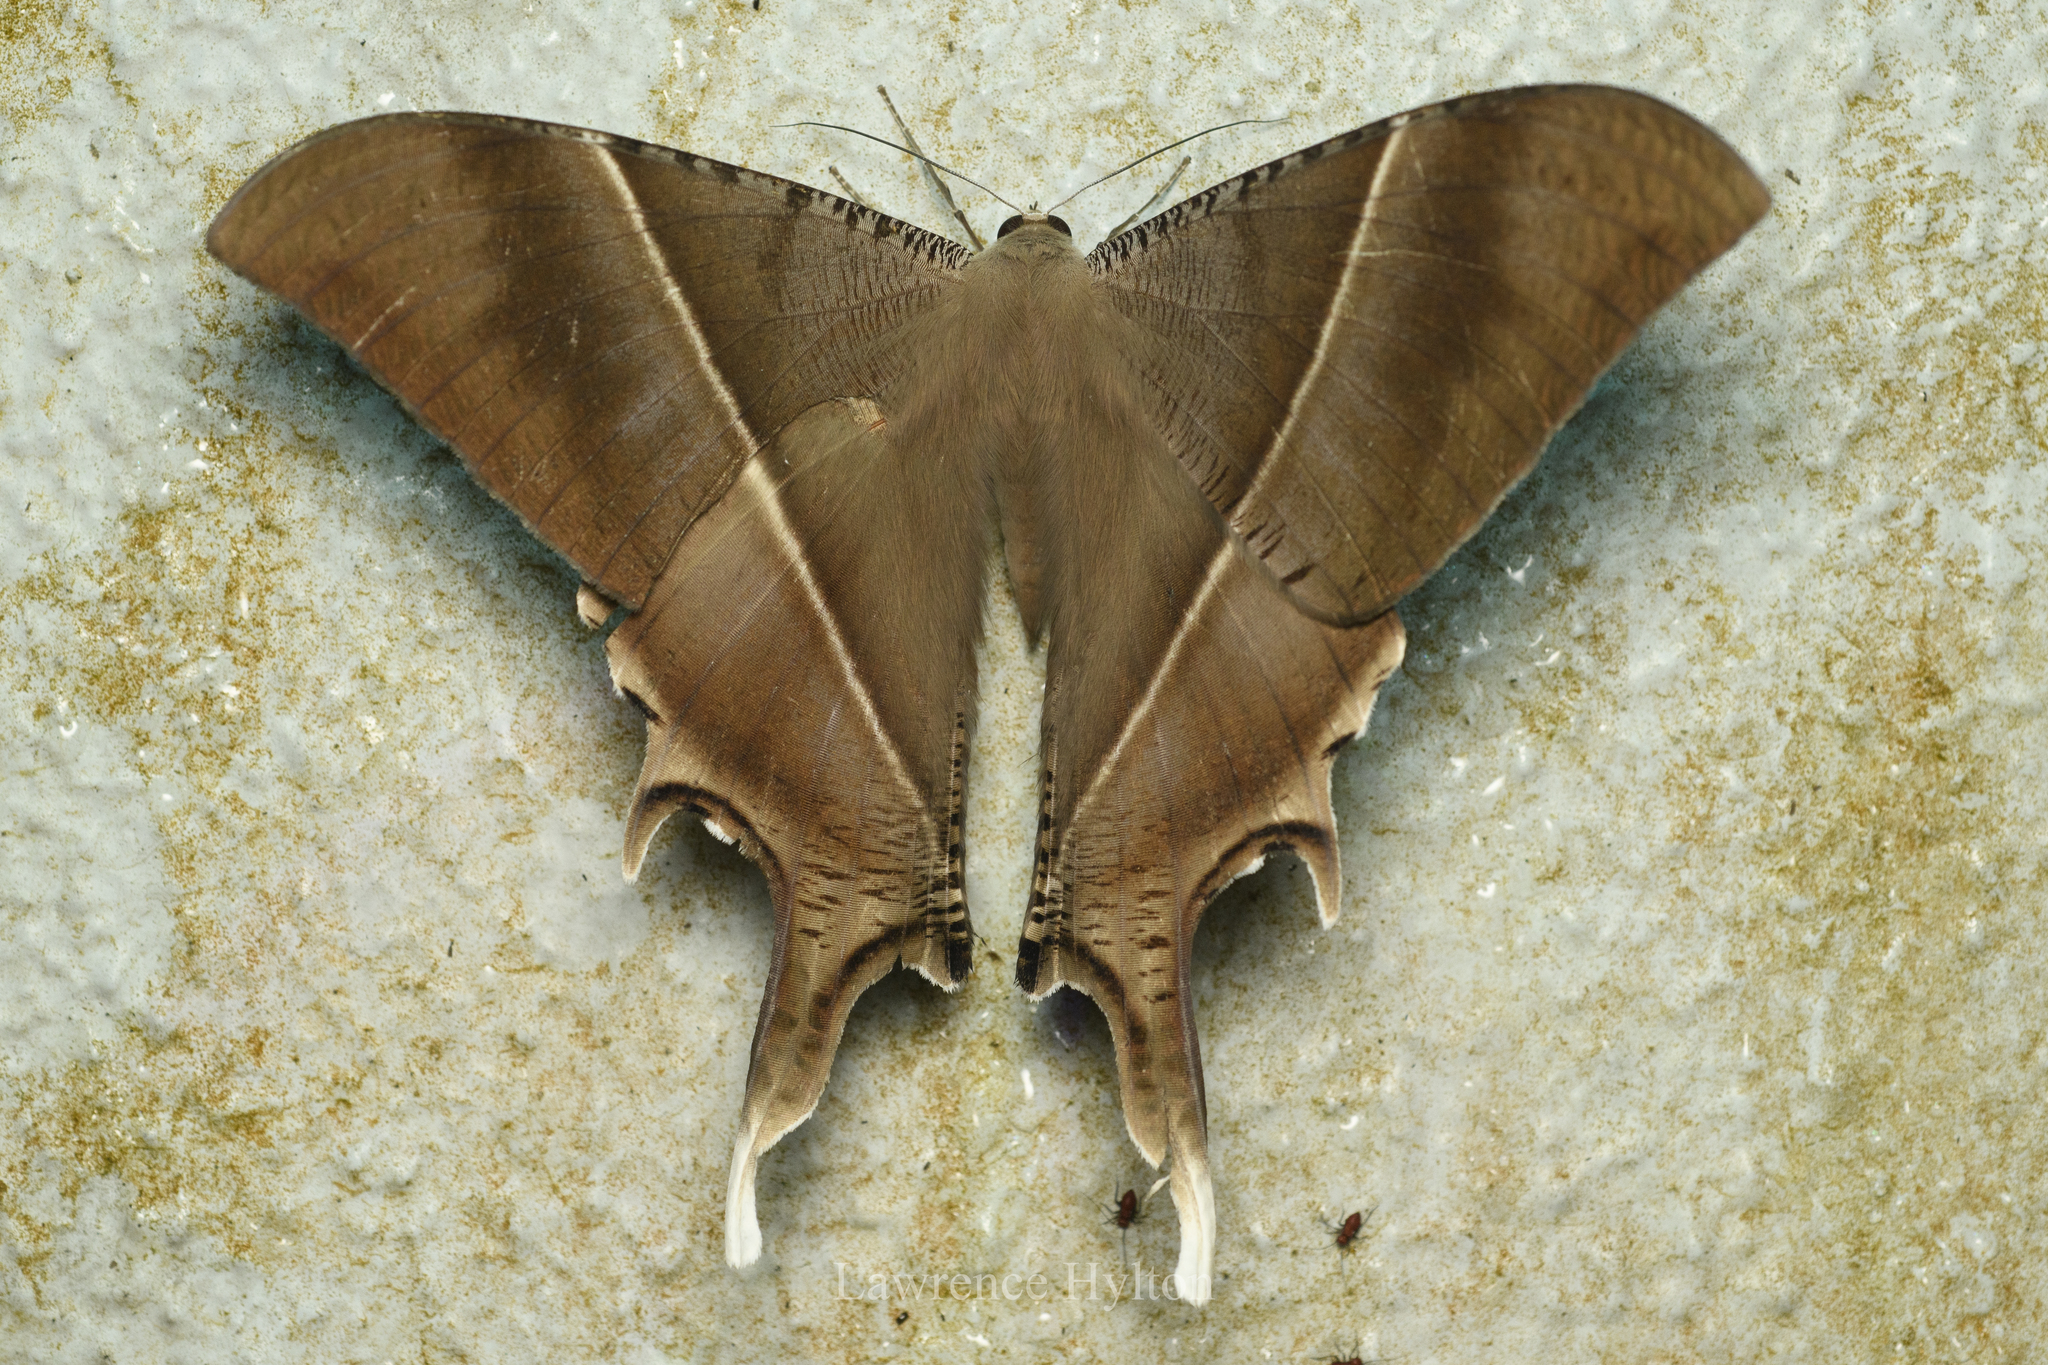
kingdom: Animalia
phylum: Arthropoda
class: Insecta
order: Lepidoptera
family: Uraniidae
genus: Lyssa
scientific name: Lyssa zampa
